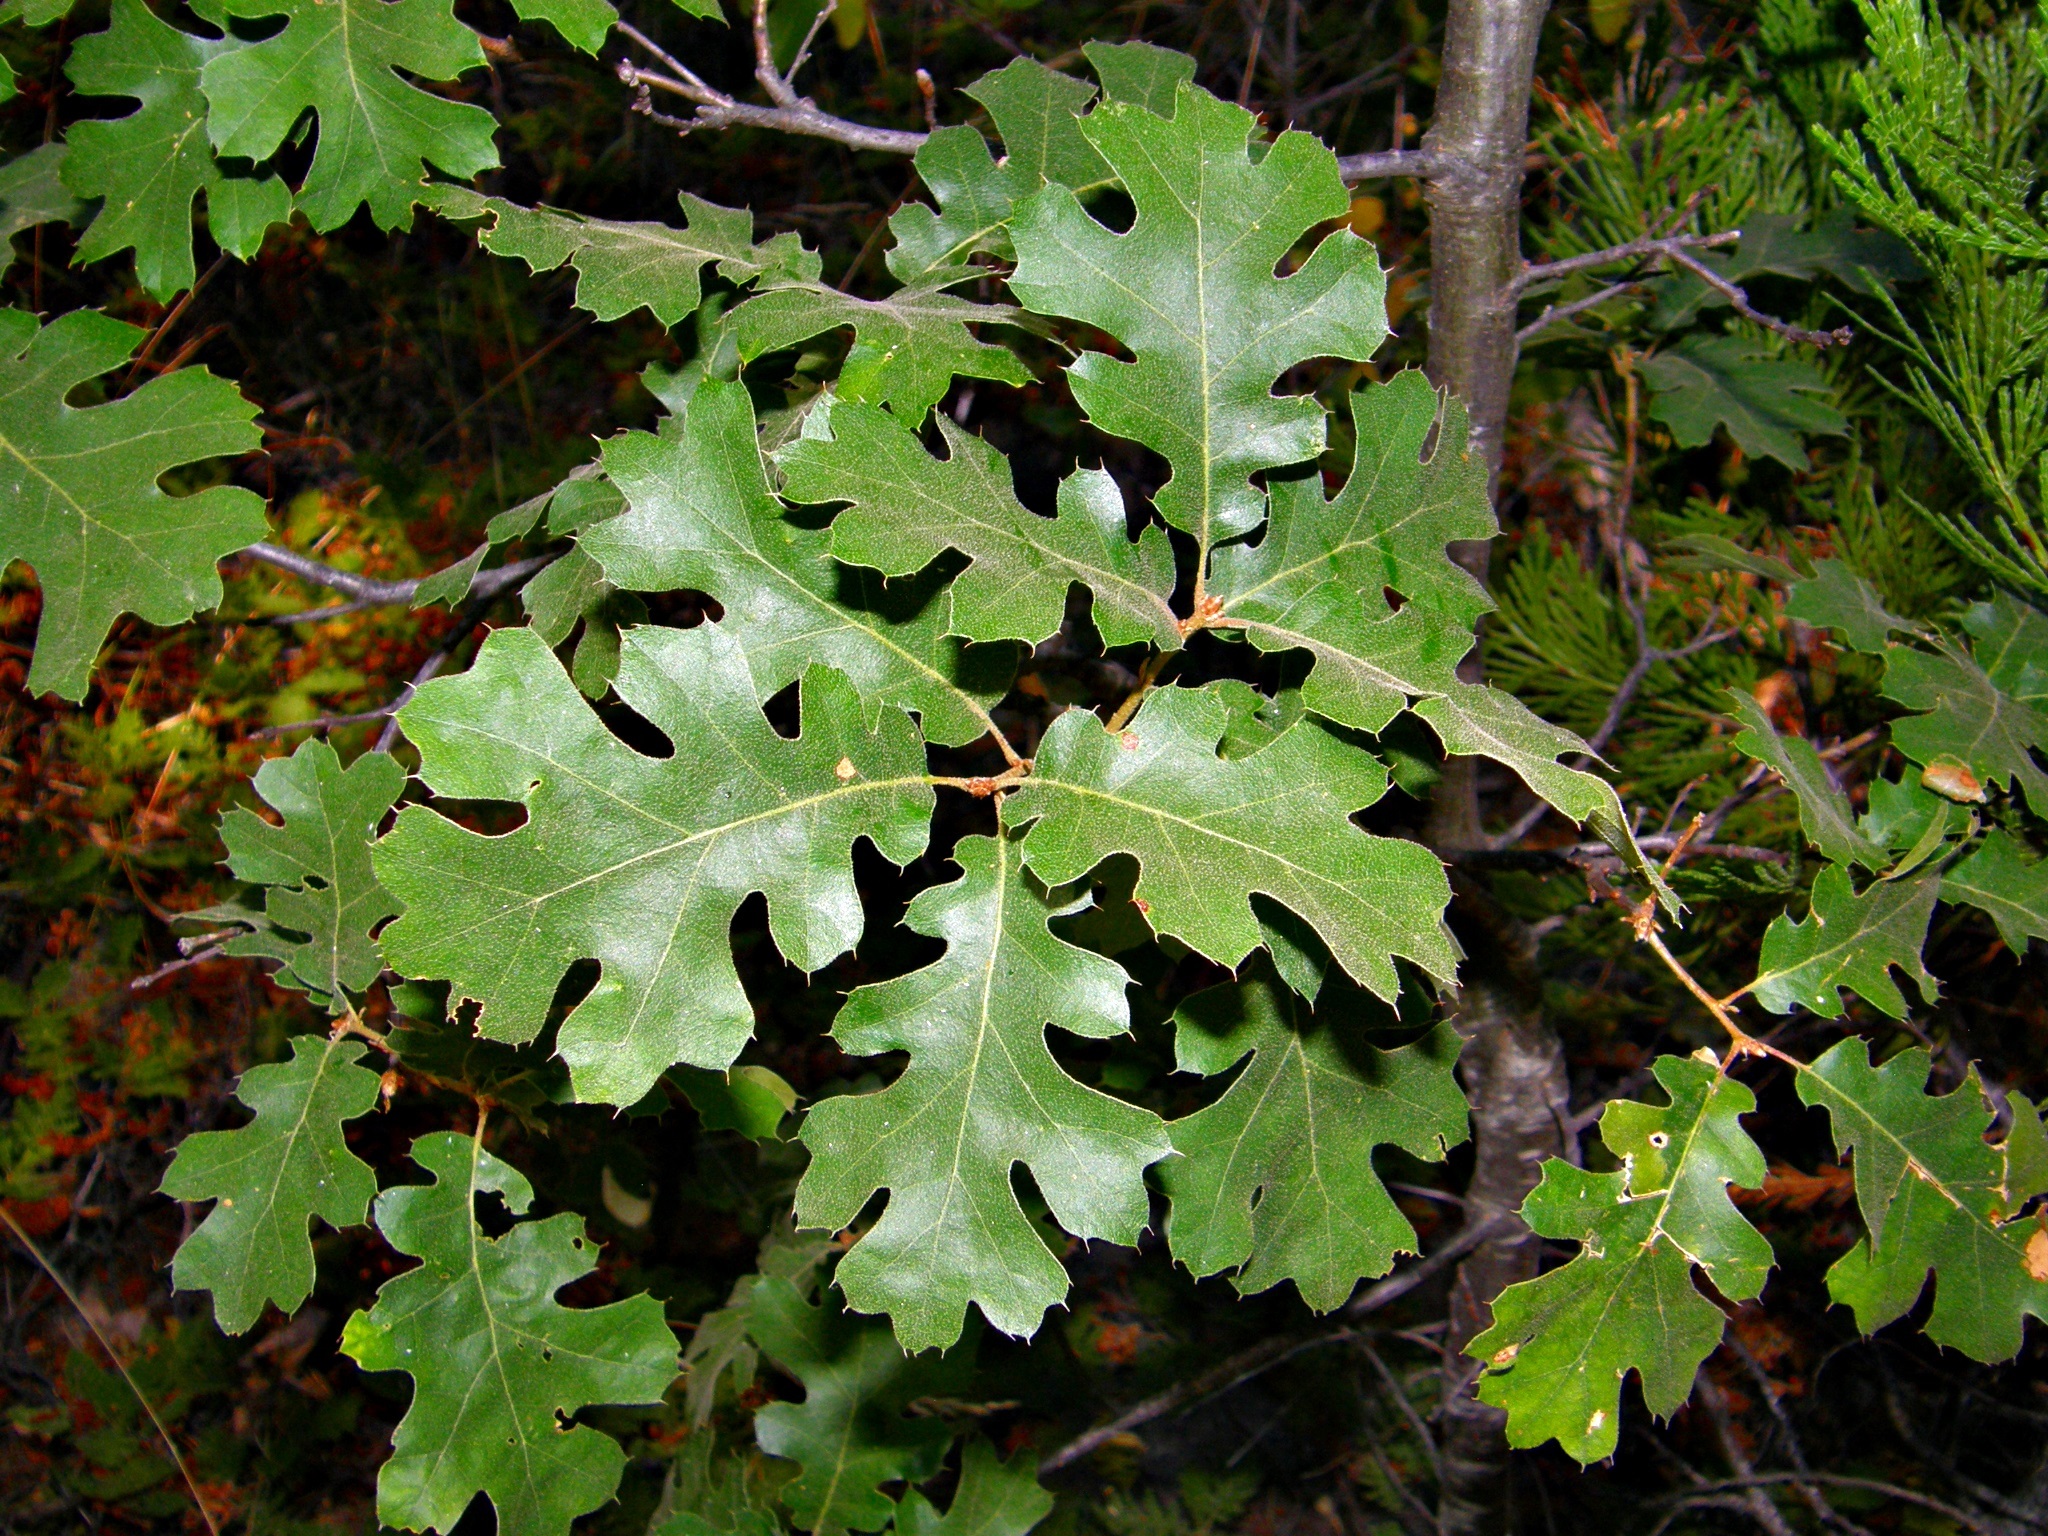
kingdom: Plantae
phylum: Tracheophyta
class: Magnoliopsida
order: Fagales
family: Fagaceae
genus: Quercus
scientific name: Quercus kelloggii
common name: California black oak
